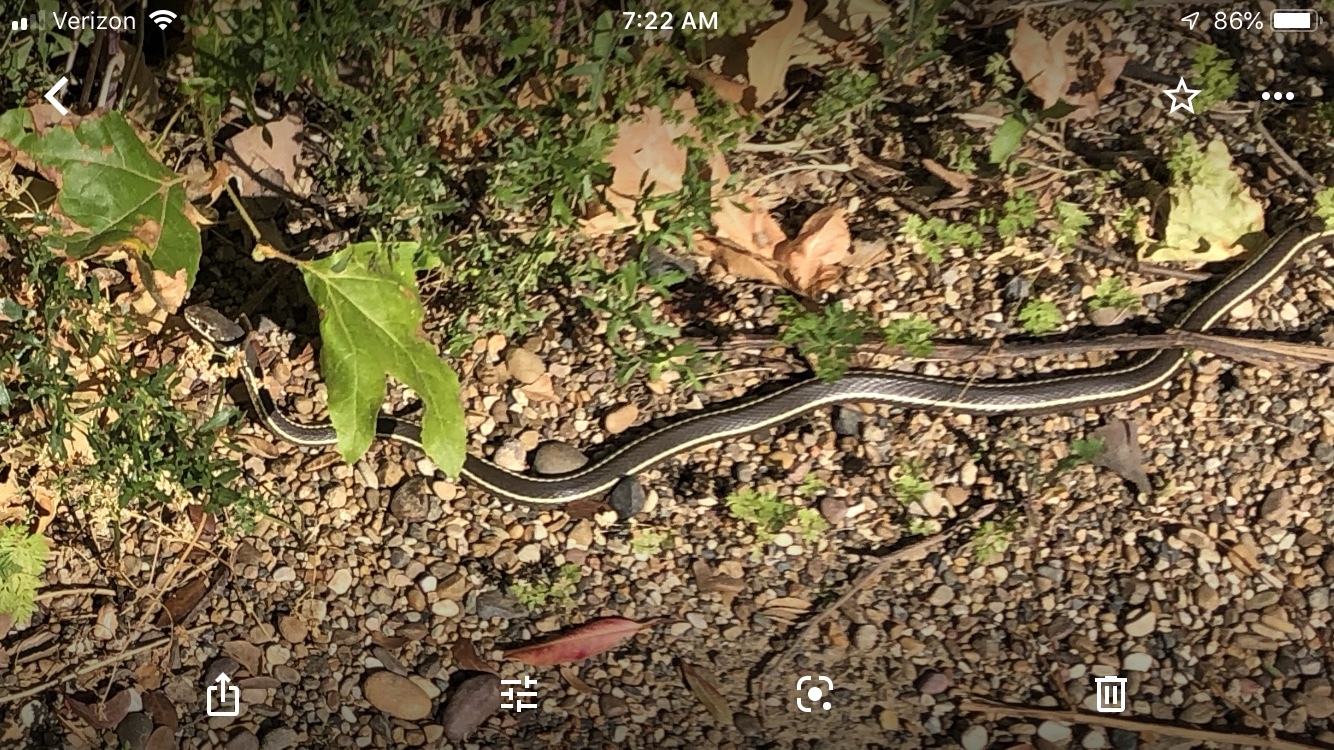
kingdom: Animalia
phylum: Chordata
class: Squamata
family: Colubridae
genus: Masticophis
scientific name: Masticophis lateralis
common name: Striped racer
